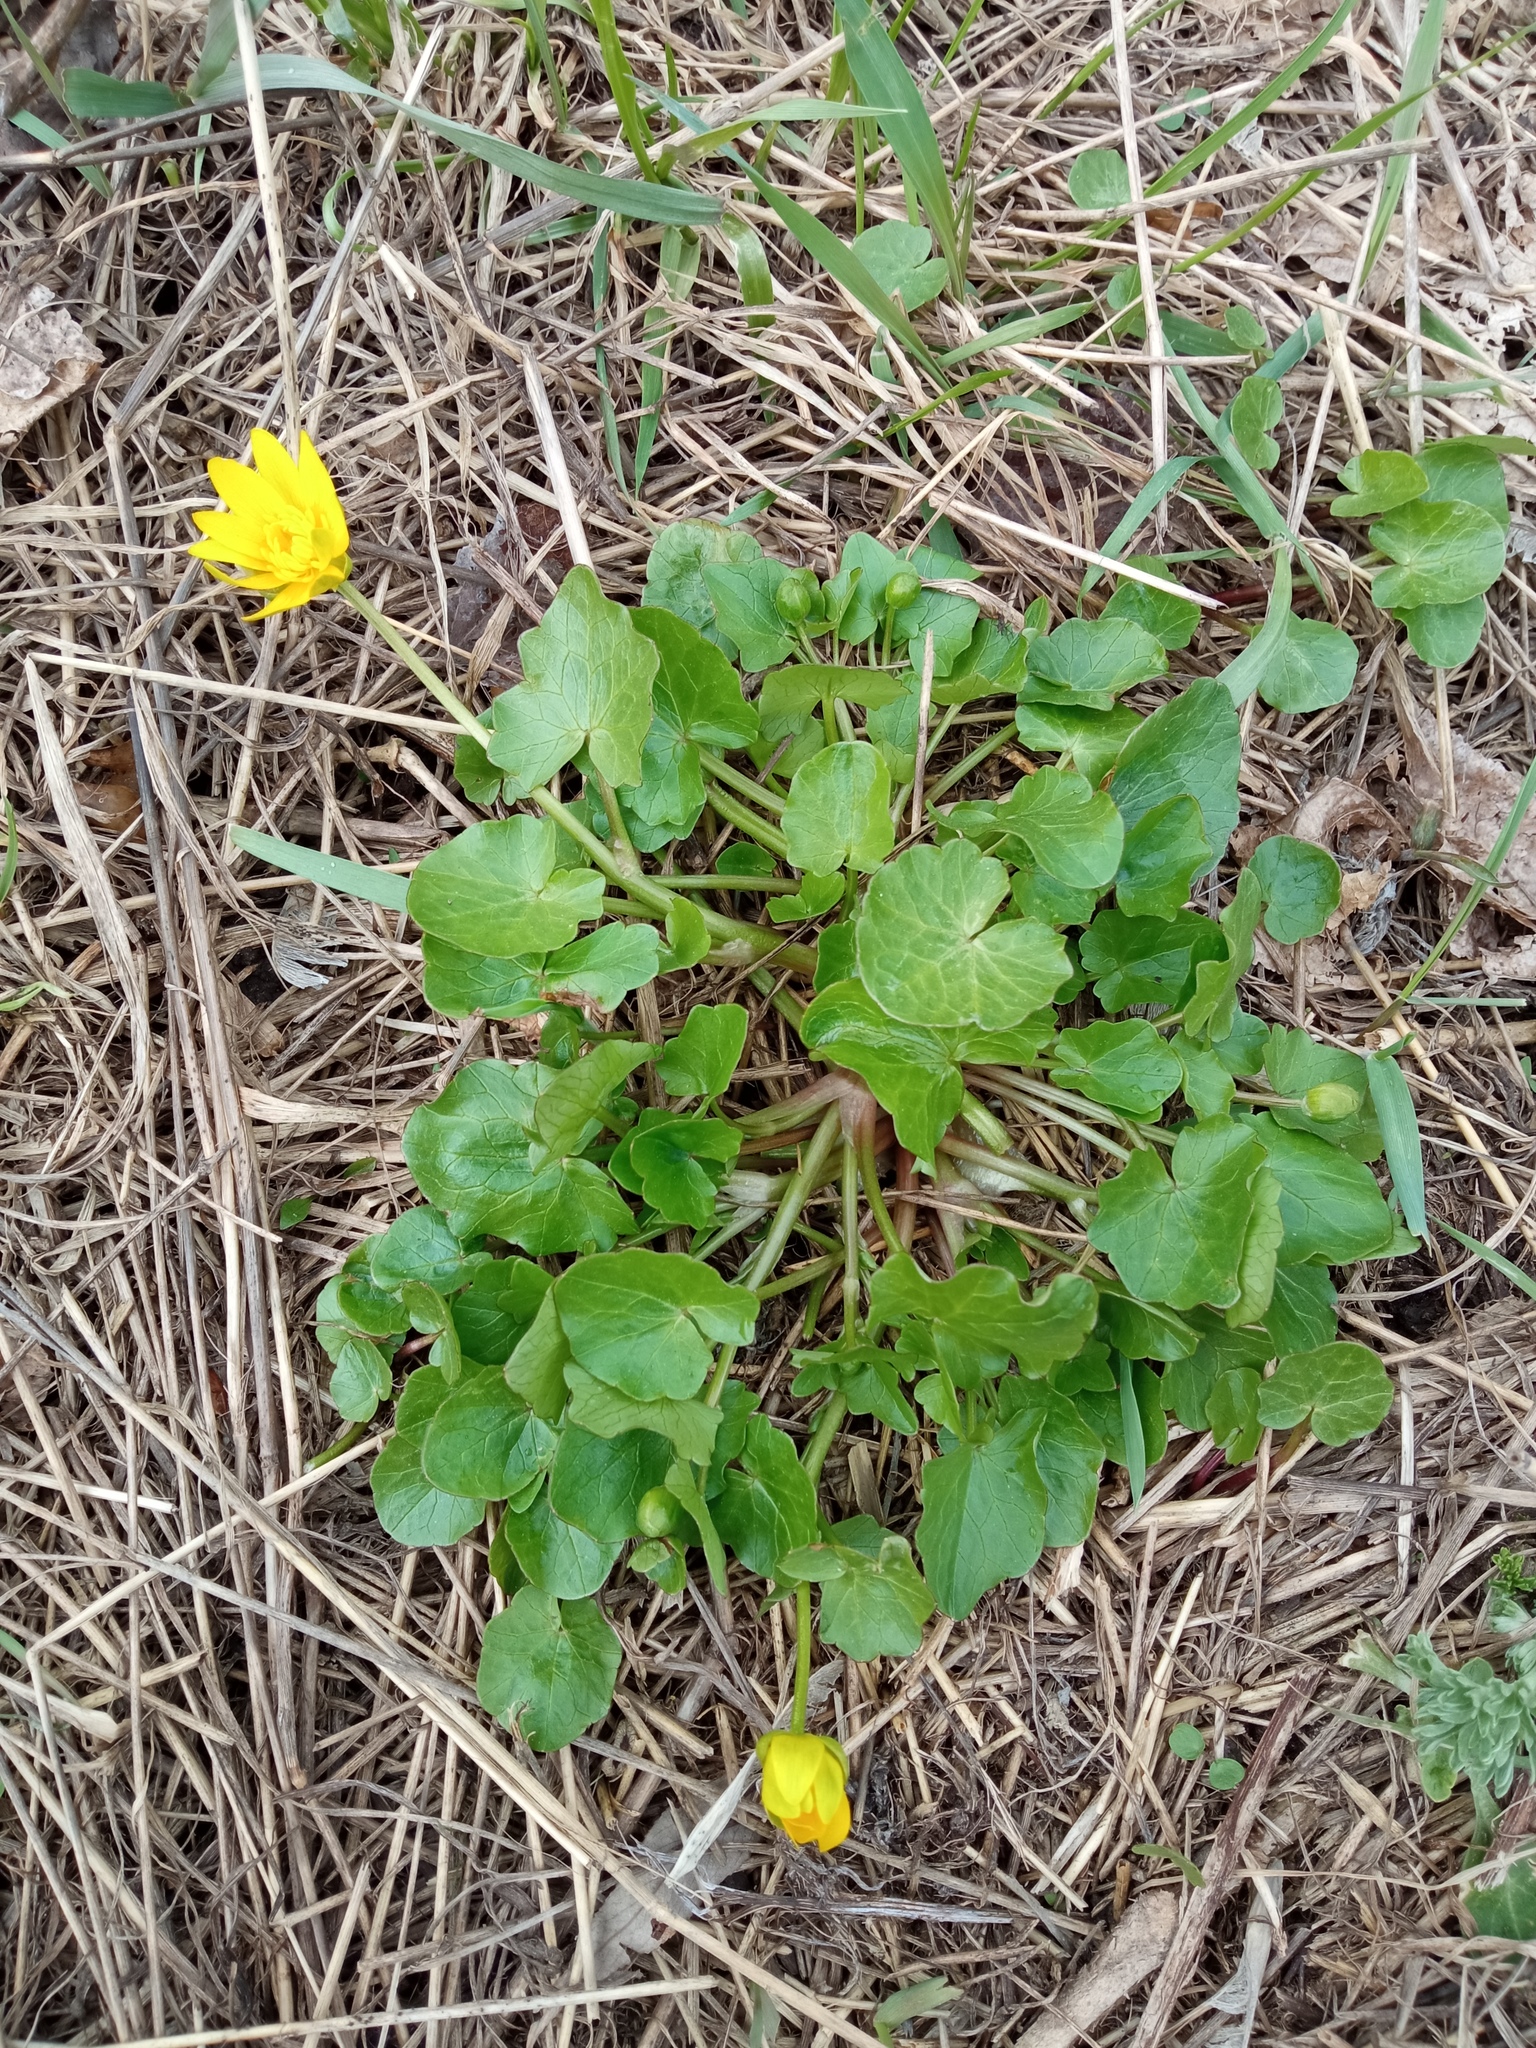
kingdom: Plantae
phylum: Tracheophyta
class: Magnoliopsida
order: Ranunculales
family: Ranunculaceae
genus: Ficaria
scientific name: Ficaria verna
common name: Lesser celandine
